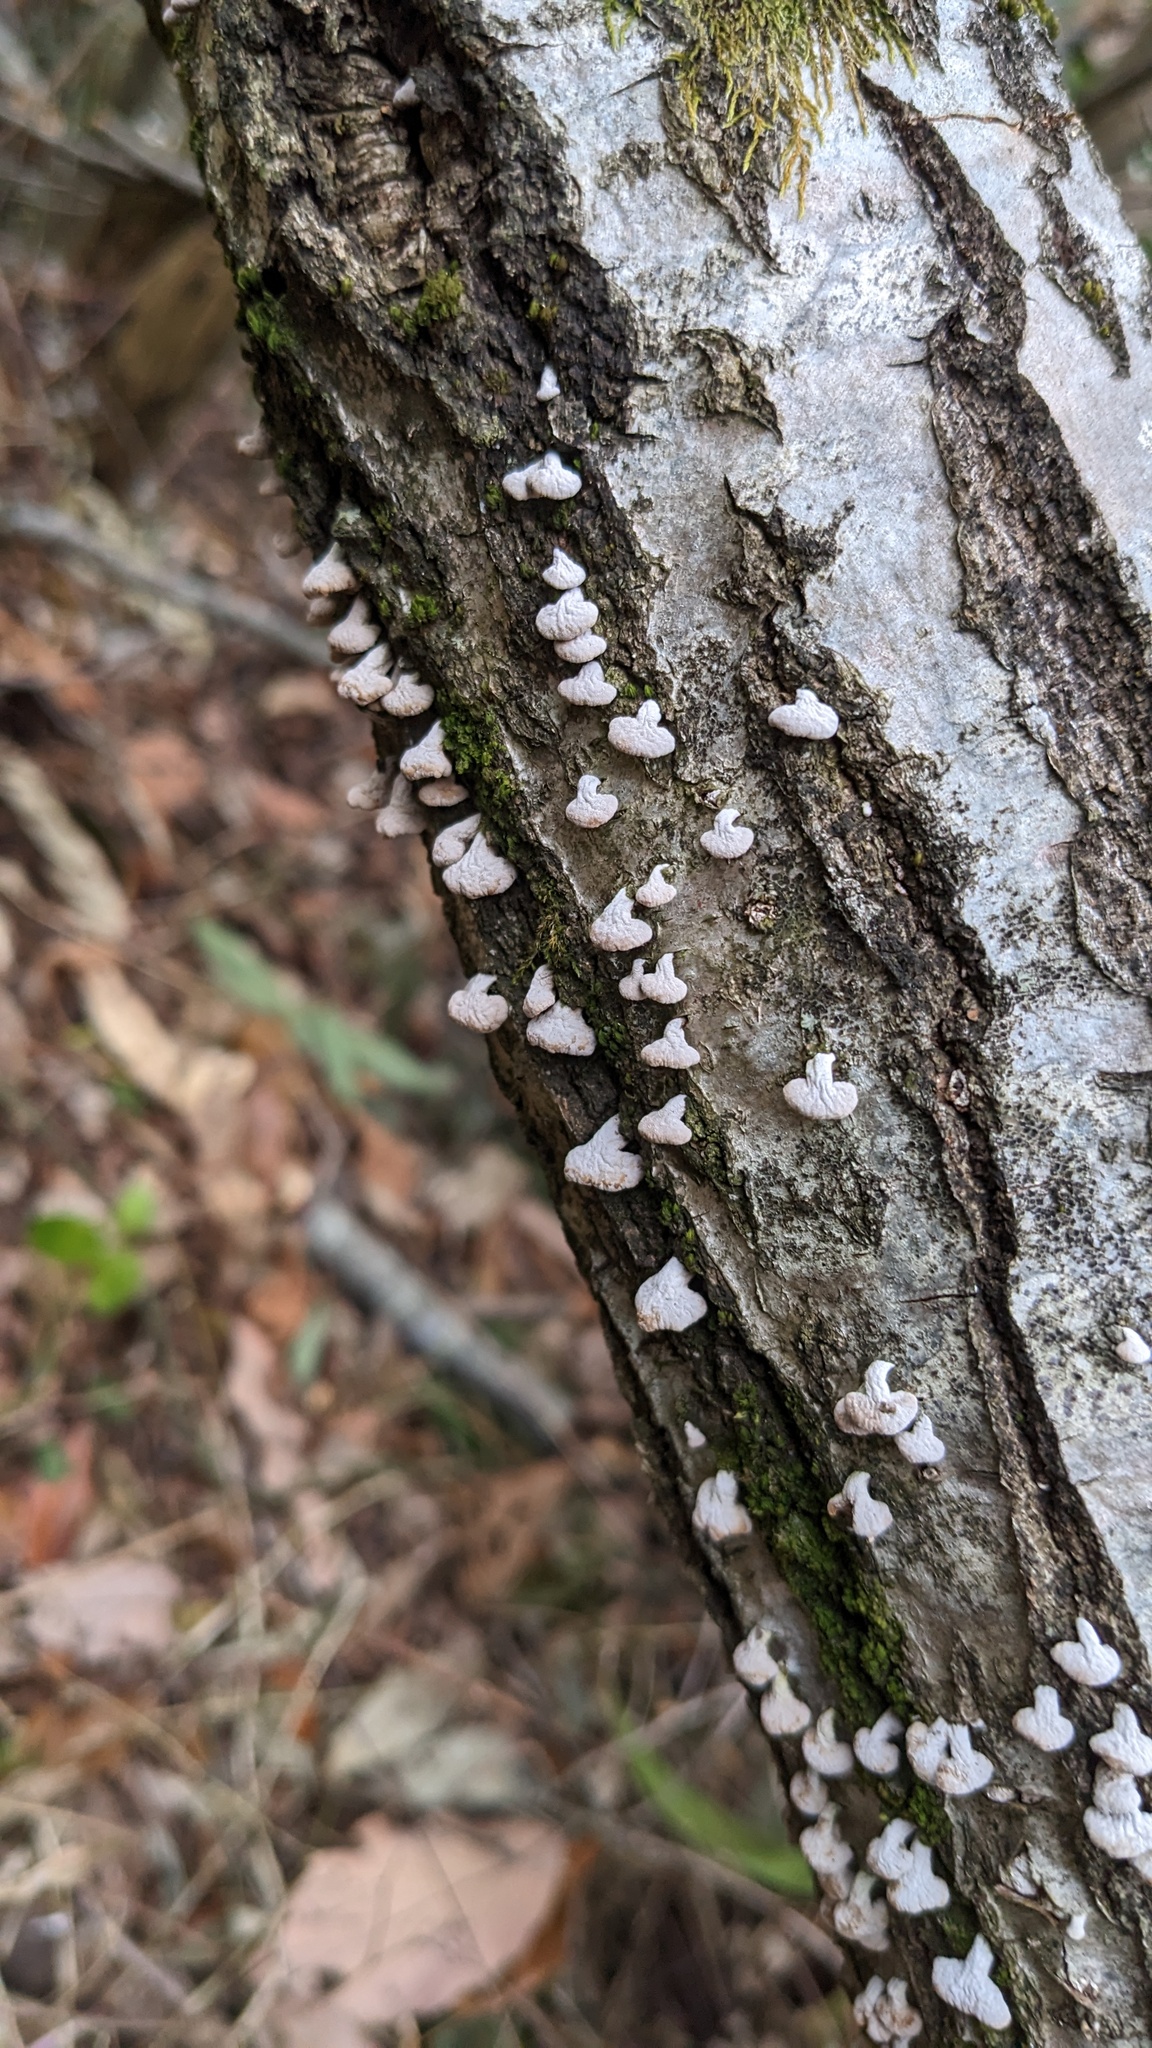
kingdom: Fungi
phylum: Basidiomycota
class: Agaricomycetes
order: Agaricales
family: Schizophyllaceae
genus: Porodisculus
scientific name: Porodisculus pendulus
